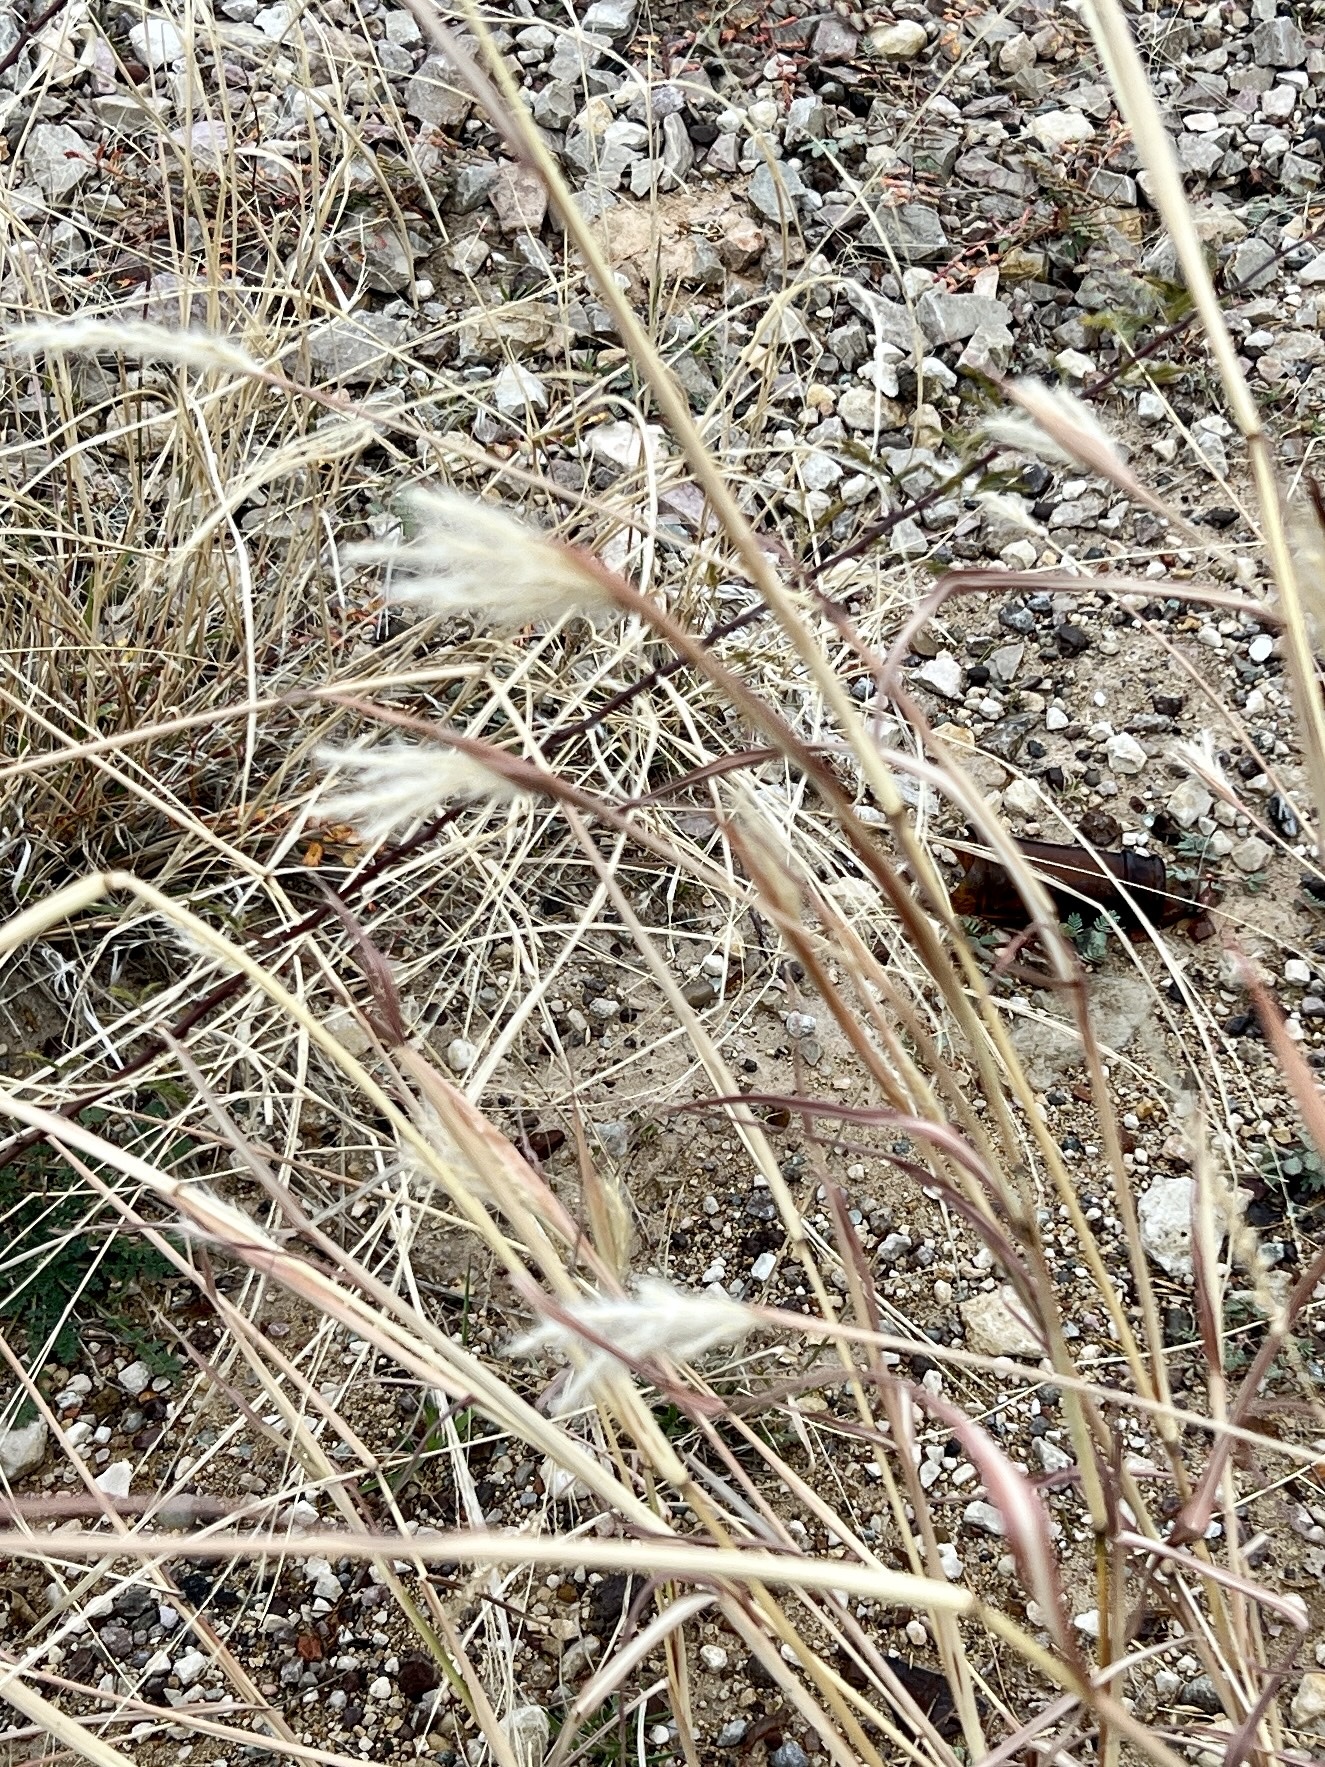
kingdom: Plantae
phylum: Tracheophyta
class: Liliopsida
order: Poales
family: Poaceae
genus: Bothriochloa
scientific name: Bothriochloa barbinodis
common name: Cane bluestem
